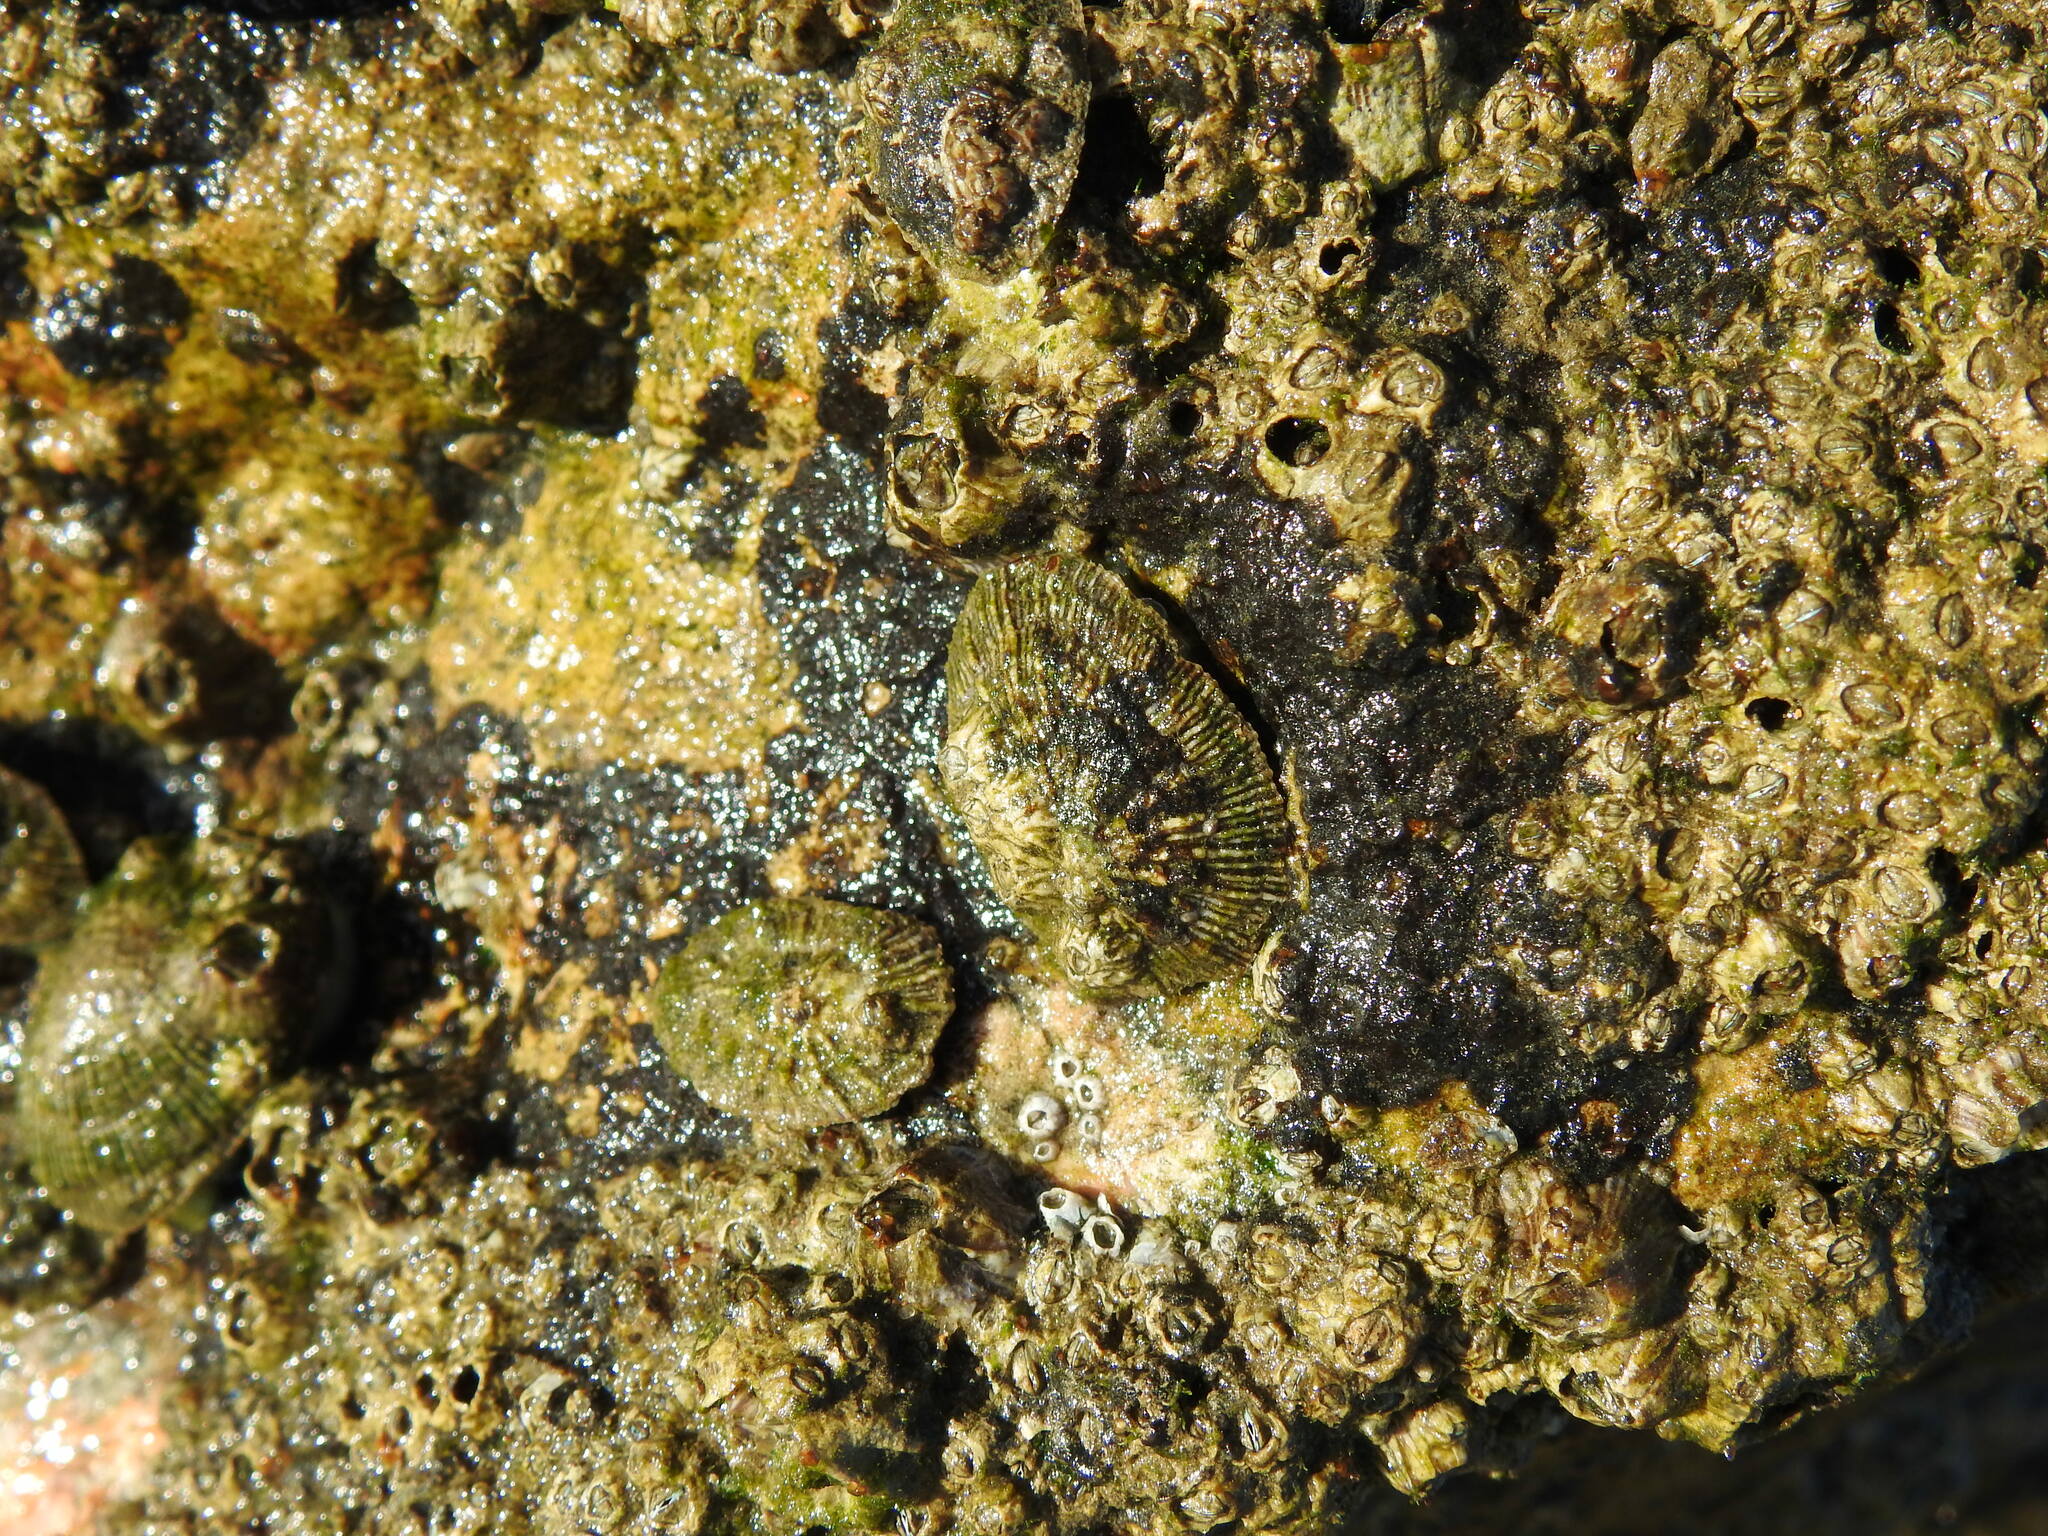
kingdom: Animalia
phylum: Mollusca
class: Gastropoda
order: Siphonariida
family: Siphonariidae
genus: Siphonaria
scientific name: Siphonaria pectinata
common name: Striped false limpet
